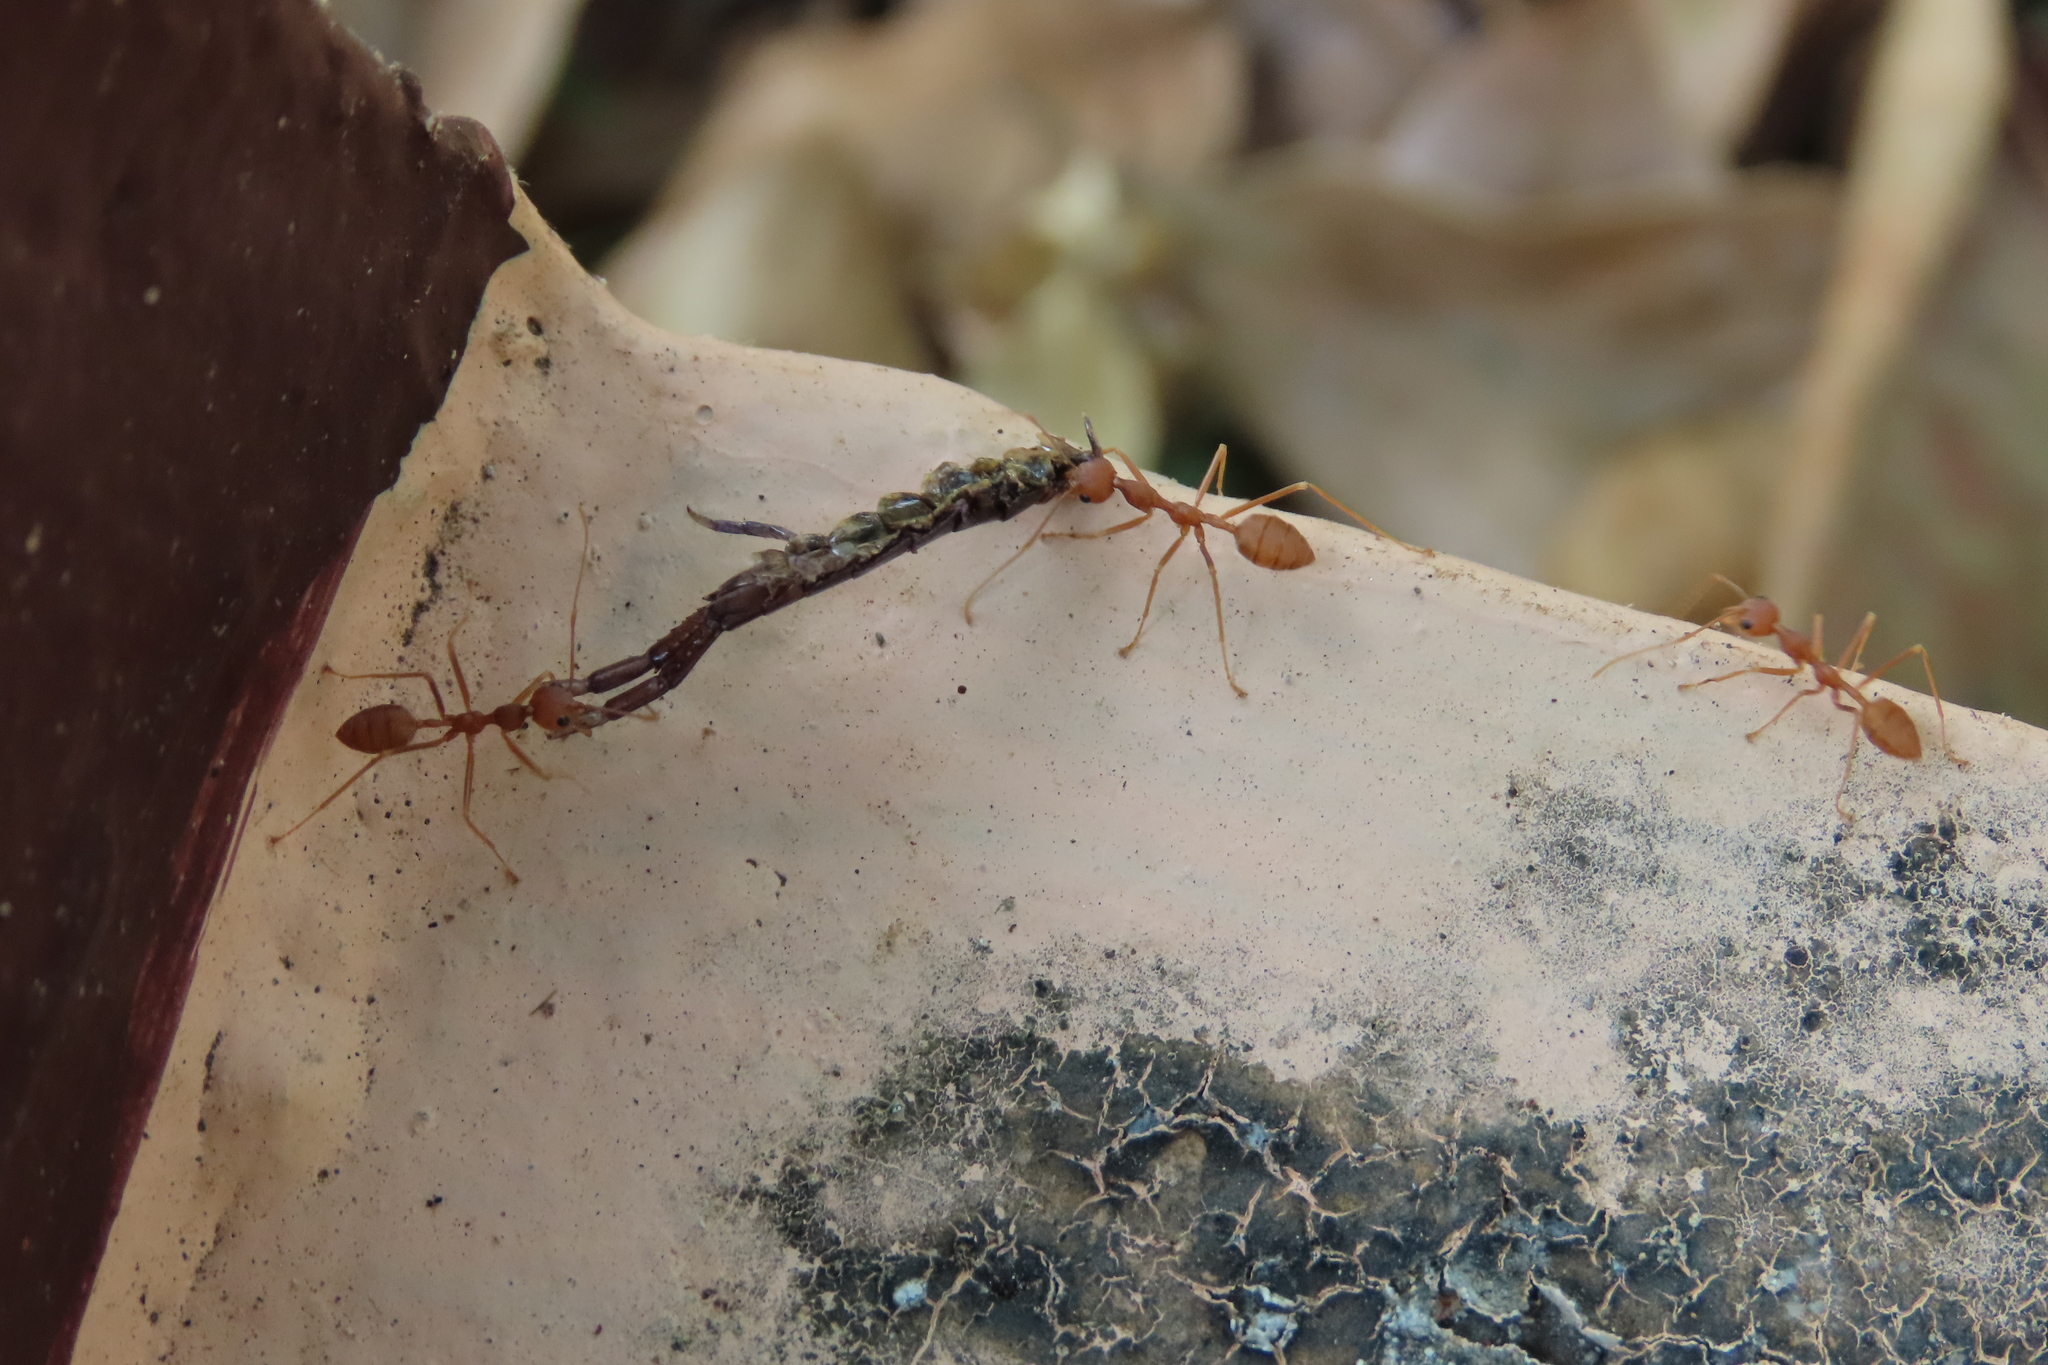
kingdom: Animalia
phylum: Arthropoda
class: Insecta
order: Hymenoptera
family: Formicidae
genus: Oecophylla
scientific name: Oecophylla smaragdina
